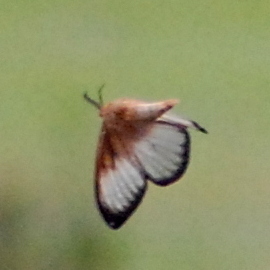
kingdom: Animalia
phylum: Arthropoda
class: Insecta
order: Lepidoptera
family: Saturniidae
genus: Ithomisa
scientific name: Ithomisa kinkelini
